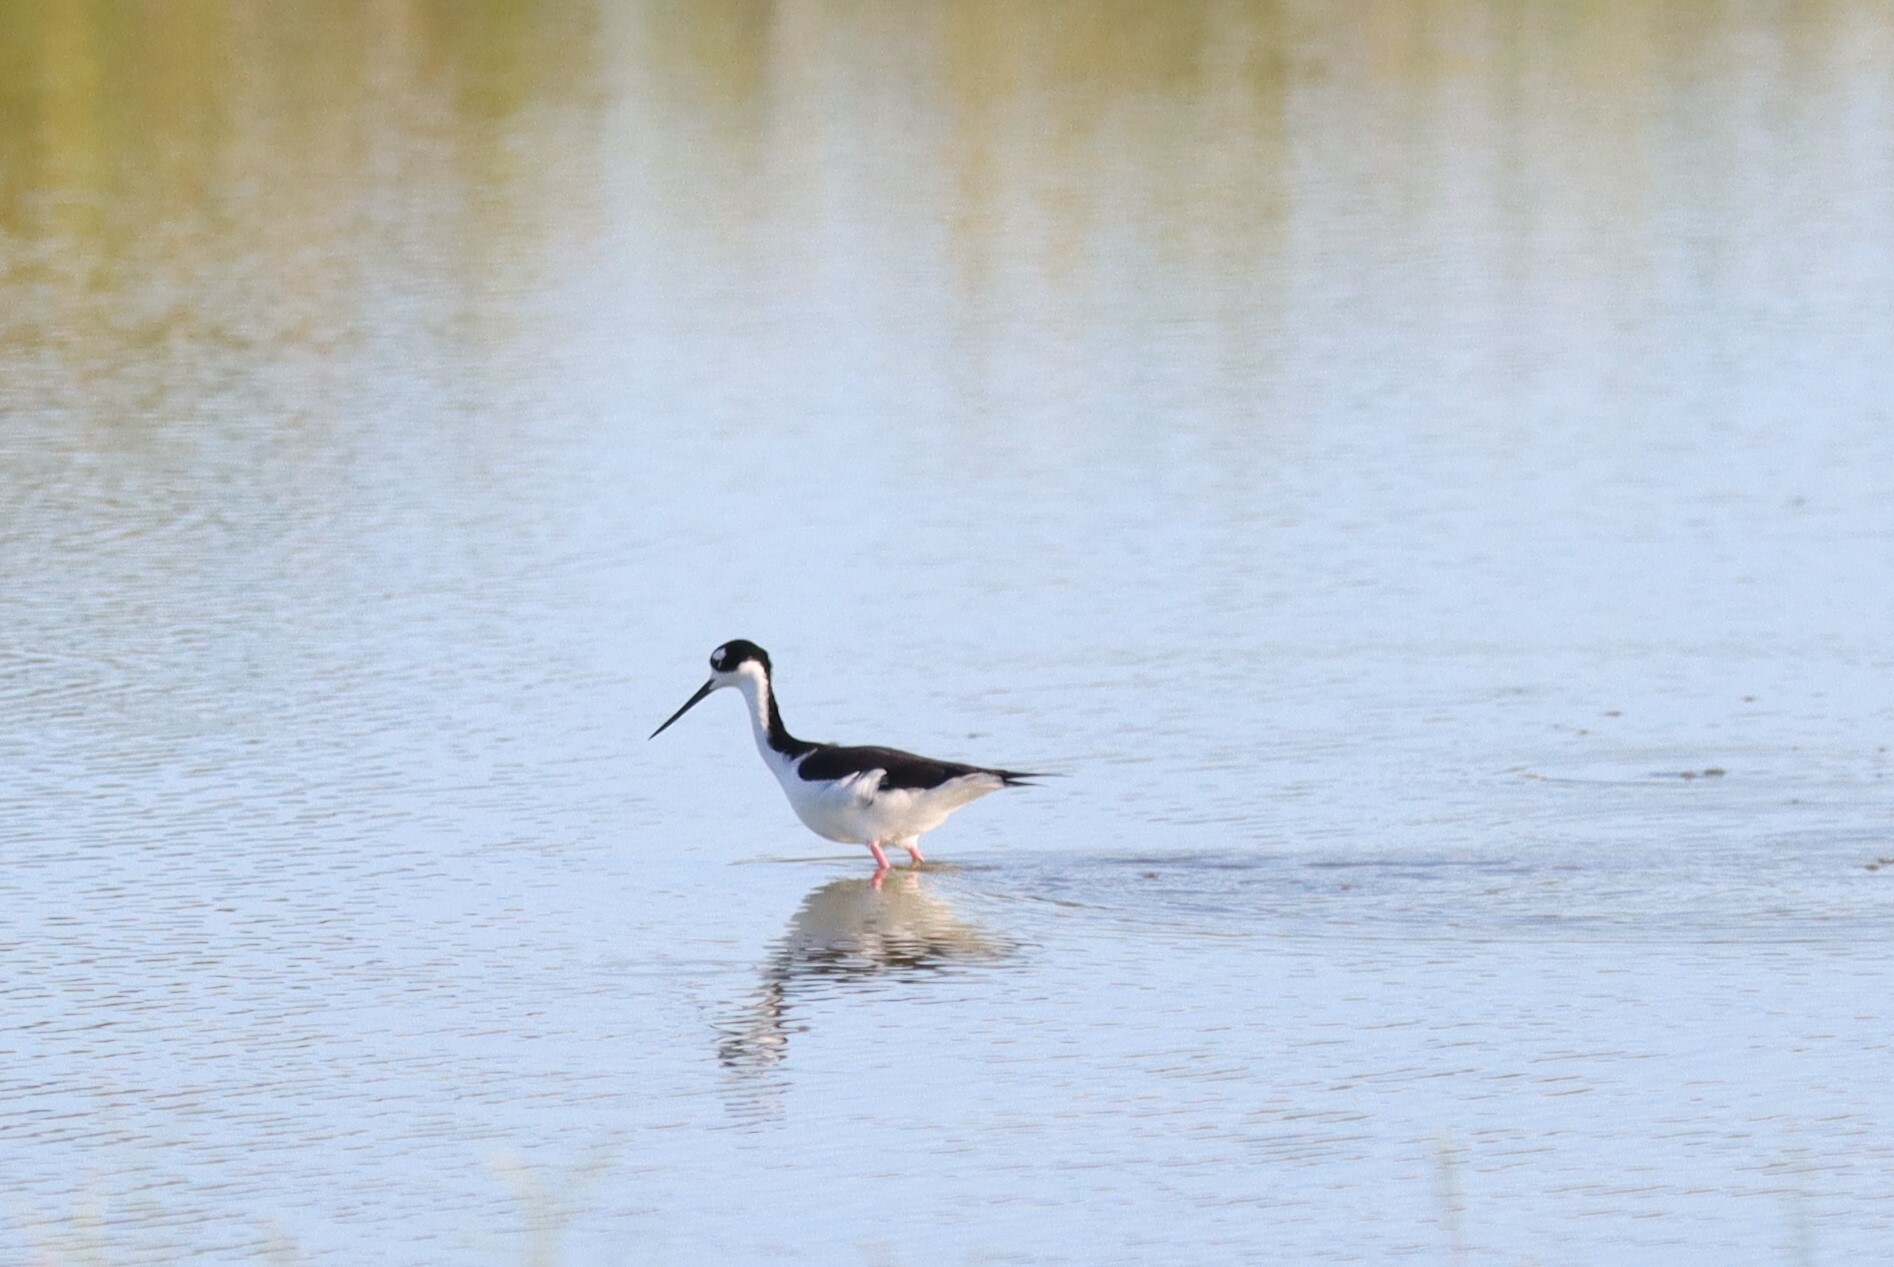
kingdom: Animalia
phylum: Chordata
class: Aves
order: Charadriiformes
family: Recurvirostridae
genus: Himantopus
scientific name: Himantopus mexicanus
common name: Black-necked stilt
